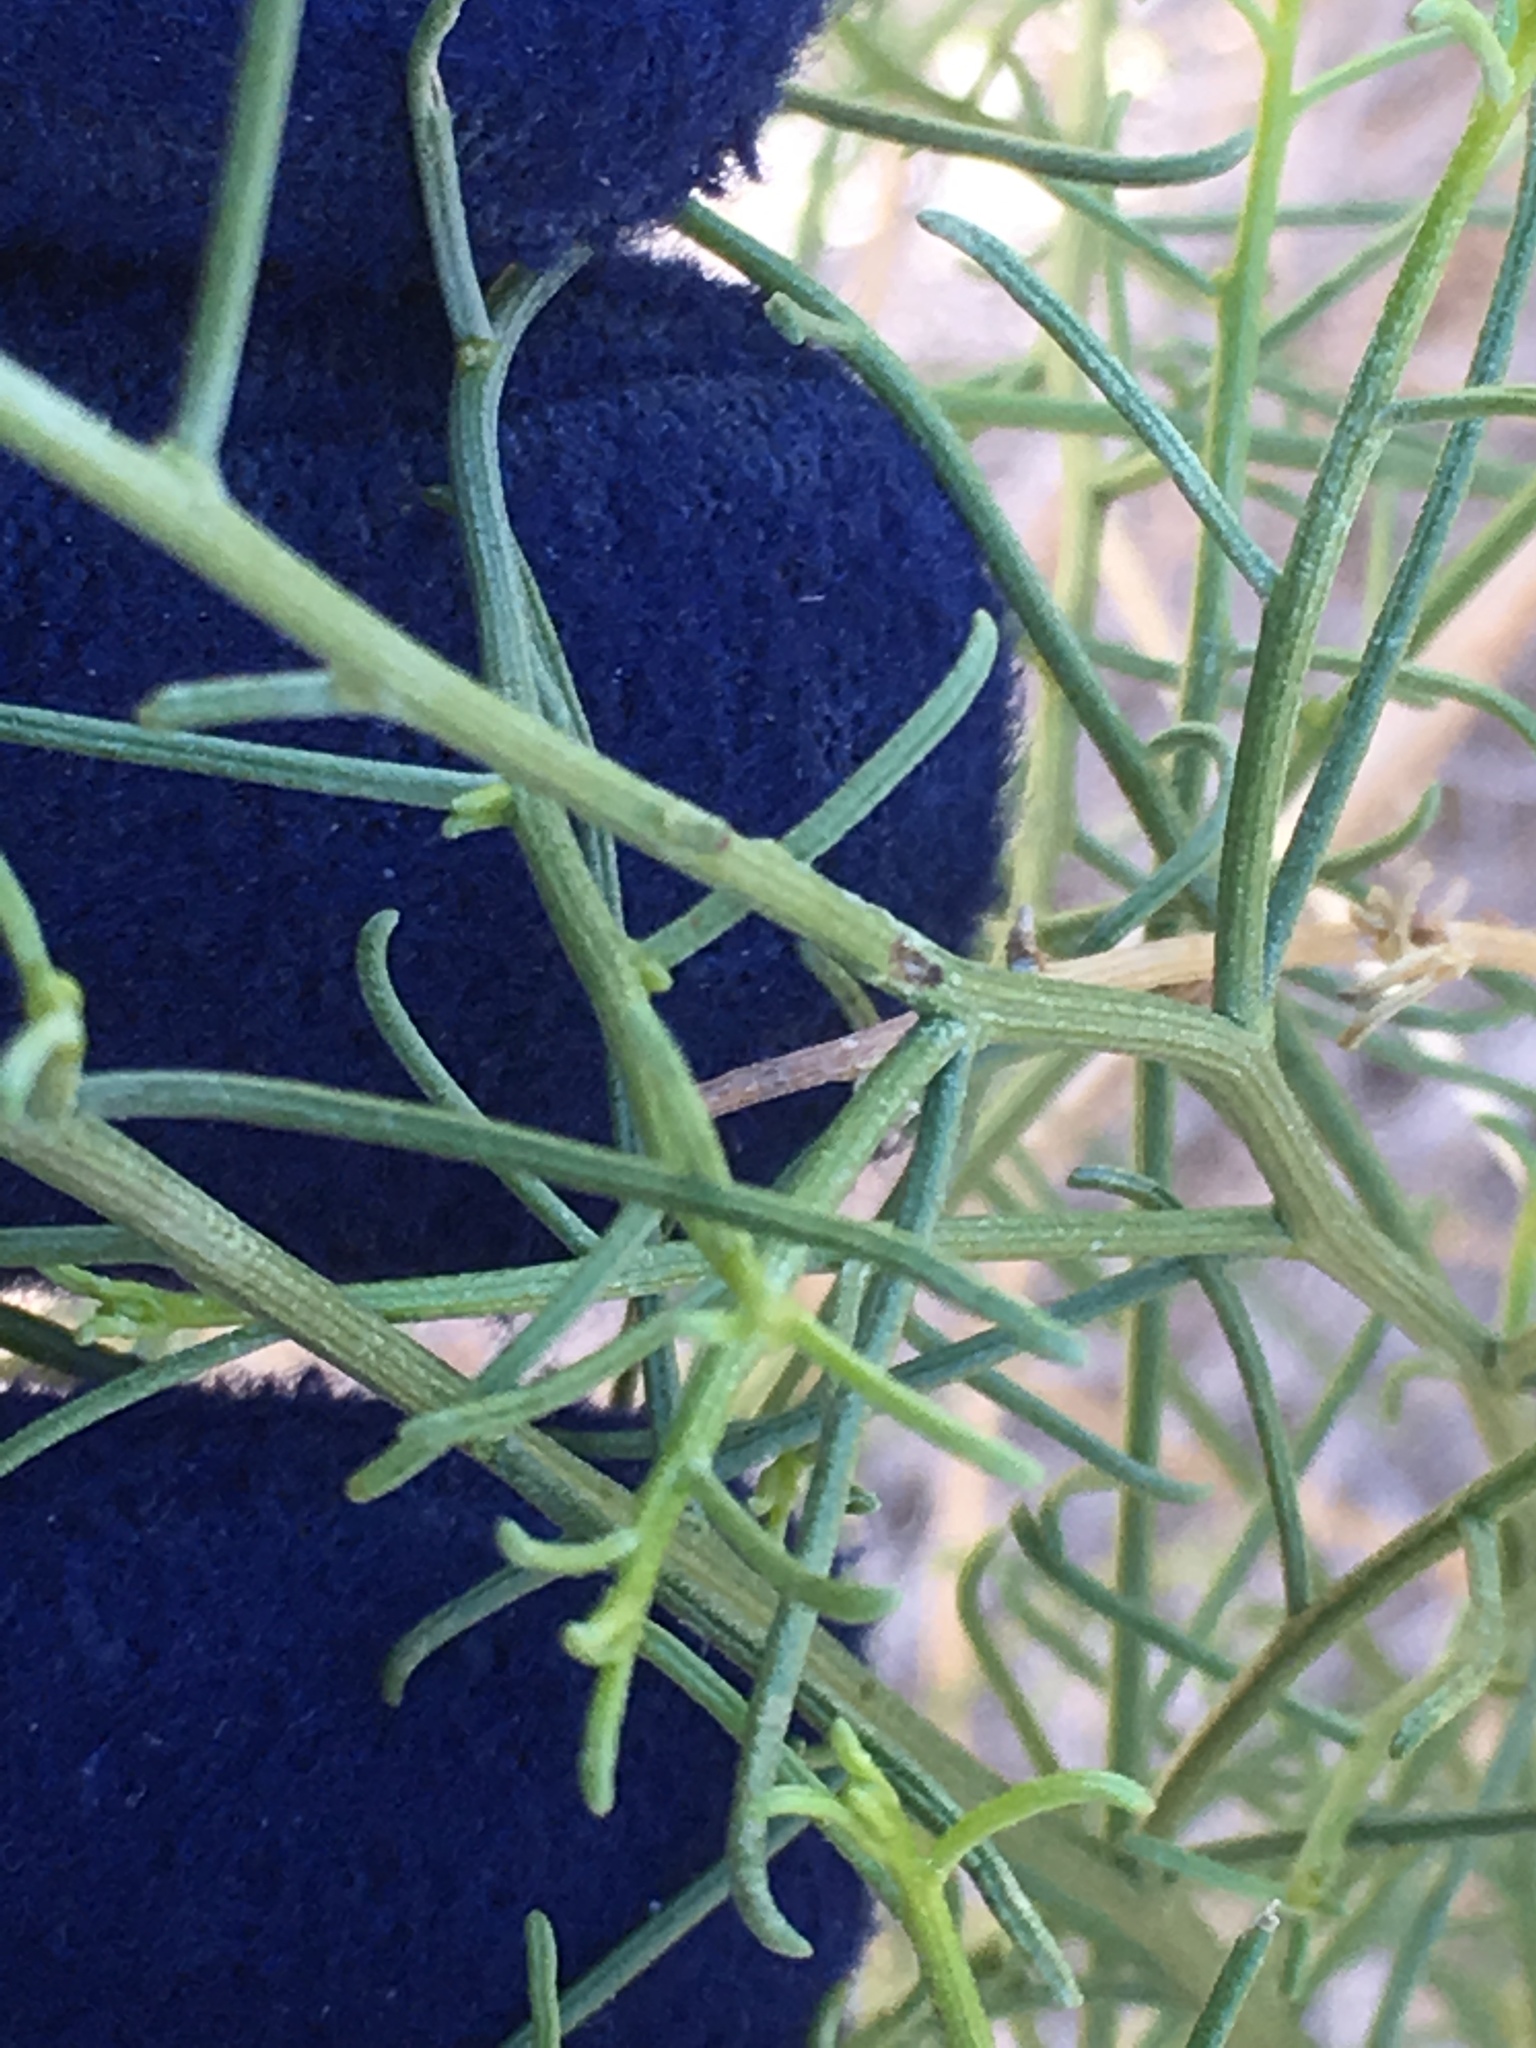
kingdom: Plantae
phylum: Tracheophyta
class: Magnoliopsida
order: Asterales
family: Asteraceae
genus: Ambrosia
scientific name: Ambrosia salsola
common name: Burrobrush
